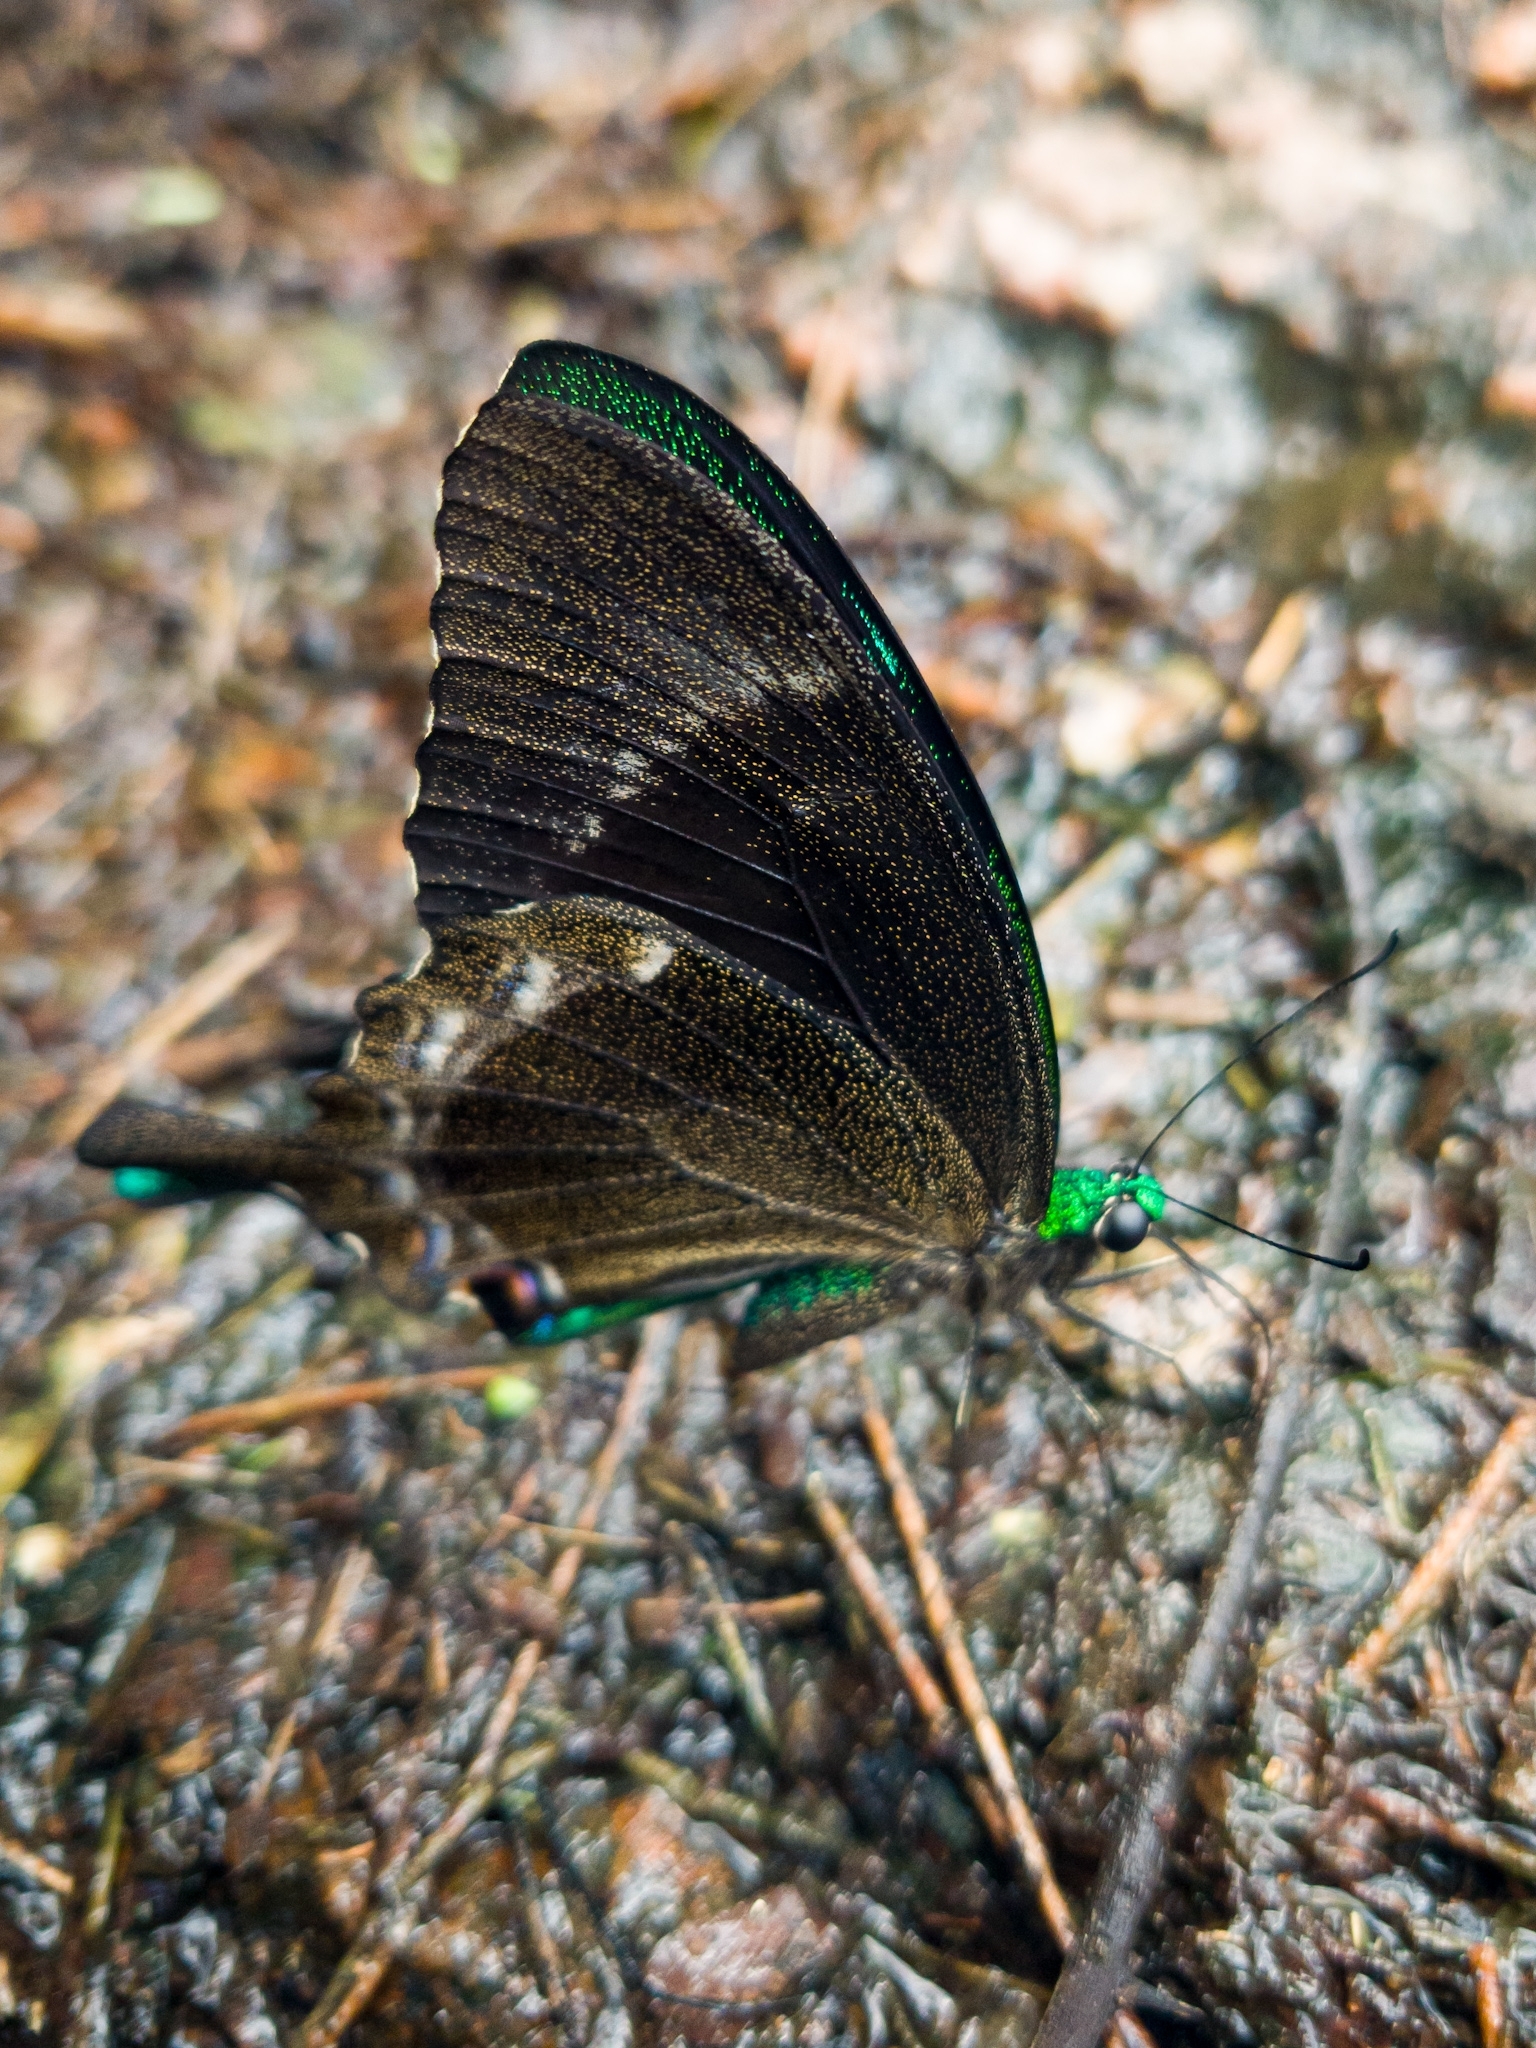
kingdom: Animalia
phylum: Arthropoda
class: Insecta
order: Lepidoptera
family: Papilionidae
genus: Papilio
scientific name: Papilio crino
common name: Common banded peacock
